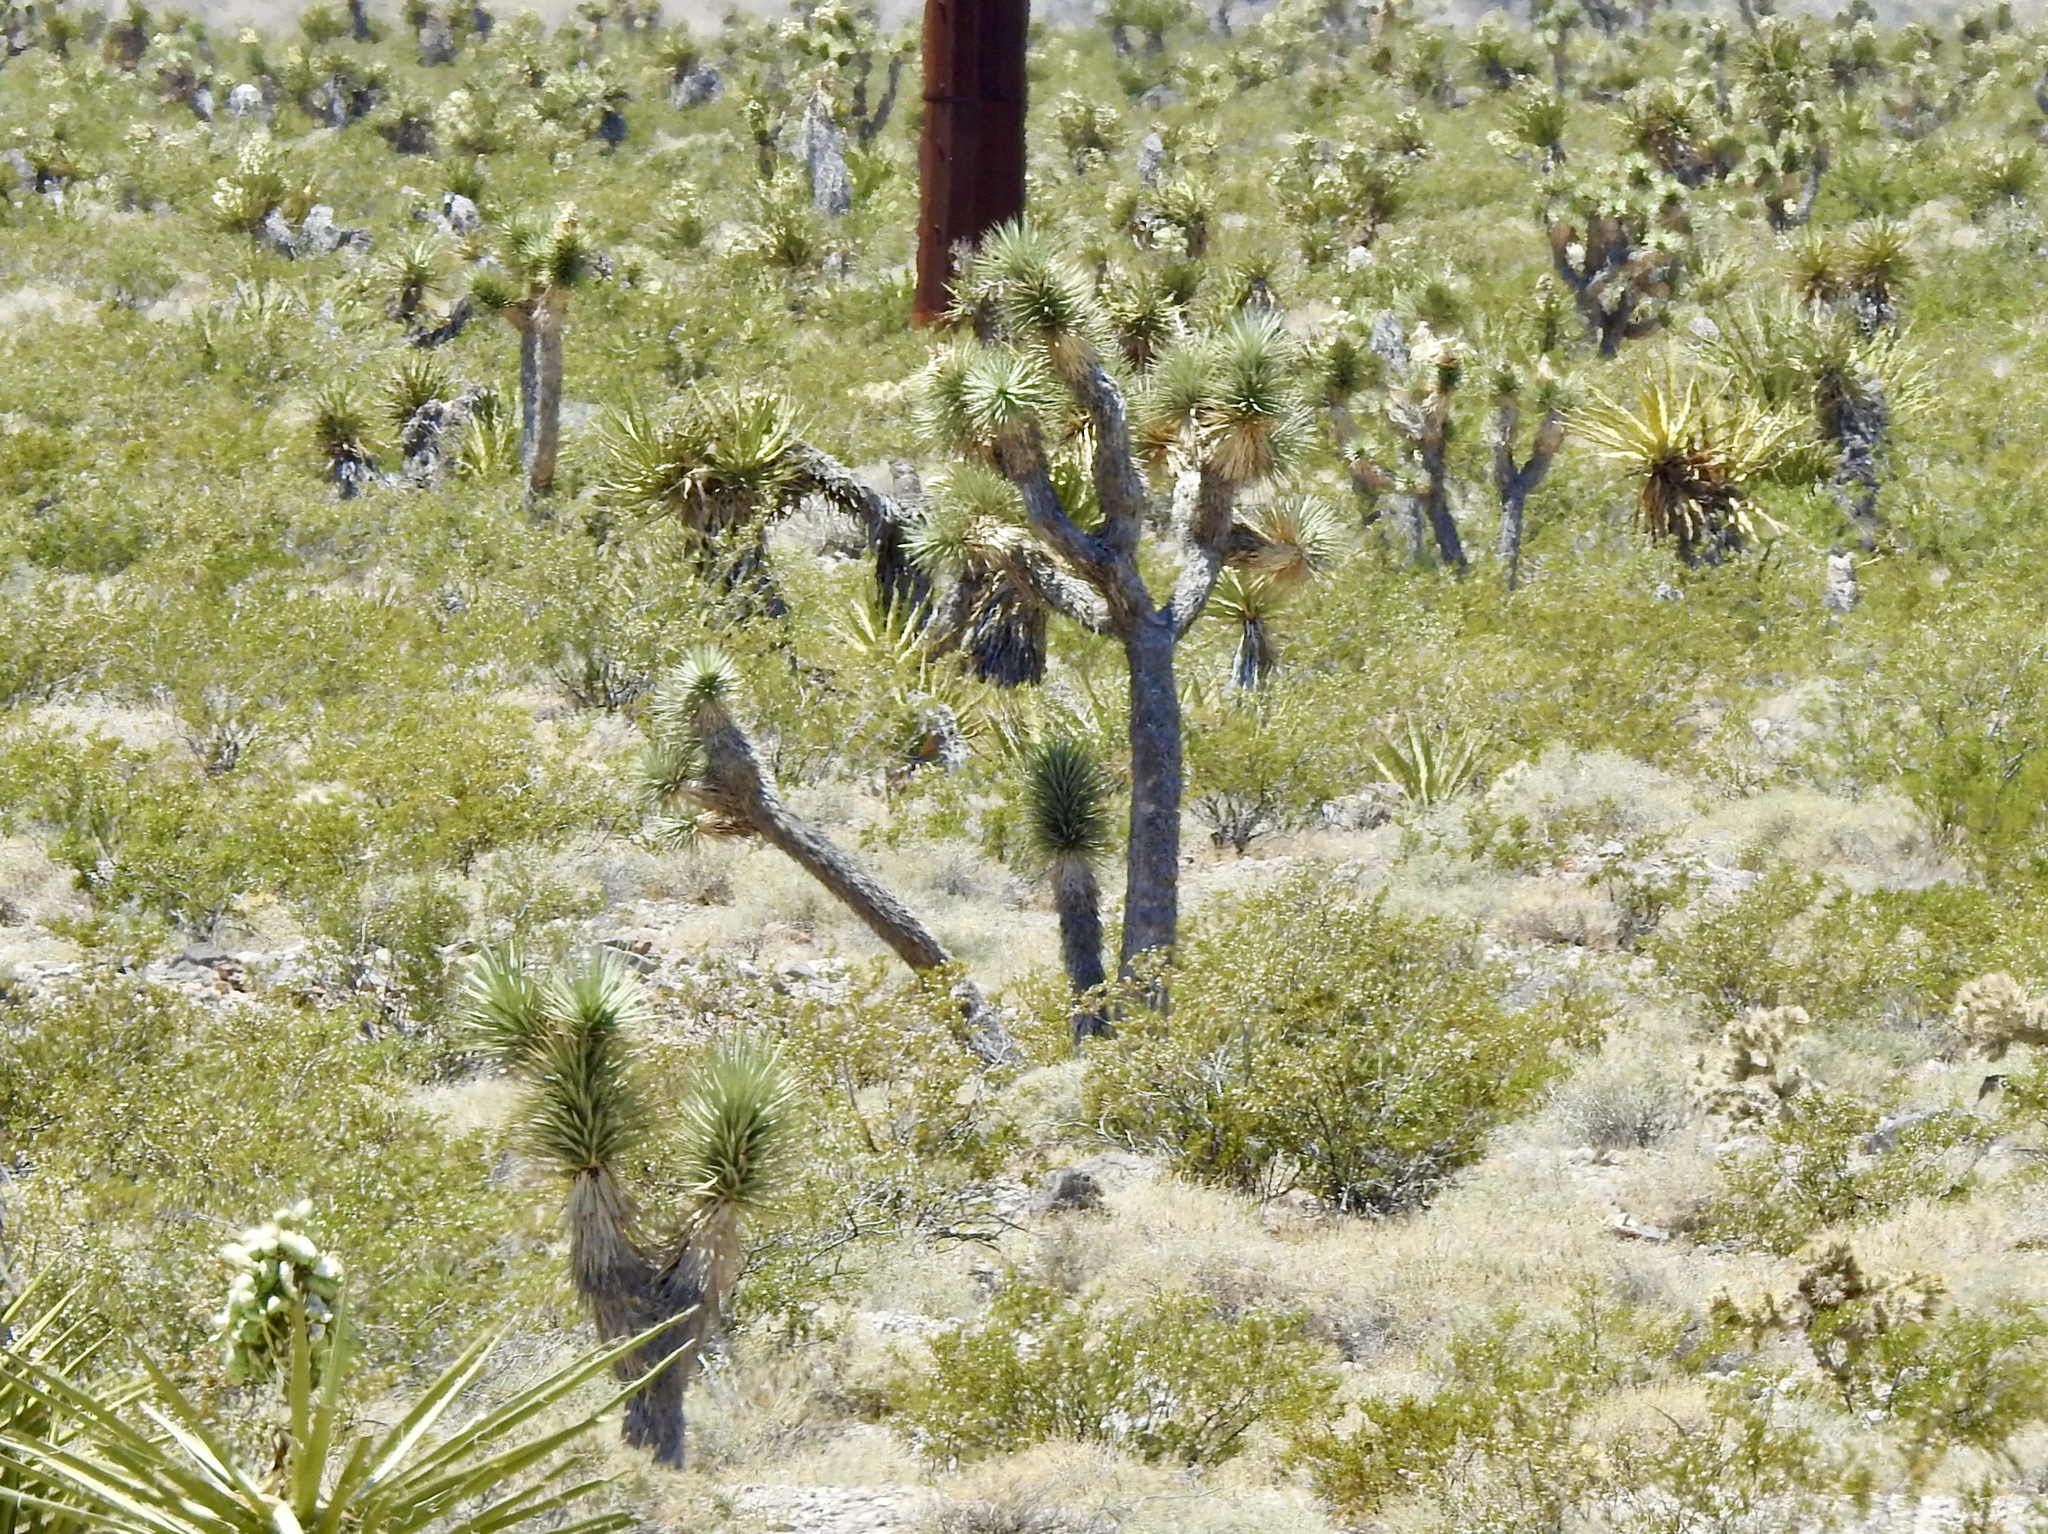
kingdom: Plantae
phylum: Tracheophyta
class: Liliopsida
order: Asparagales
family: Asparagaceae
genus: Yucca
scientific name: Yucca brevifolia
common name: Joshua tree
